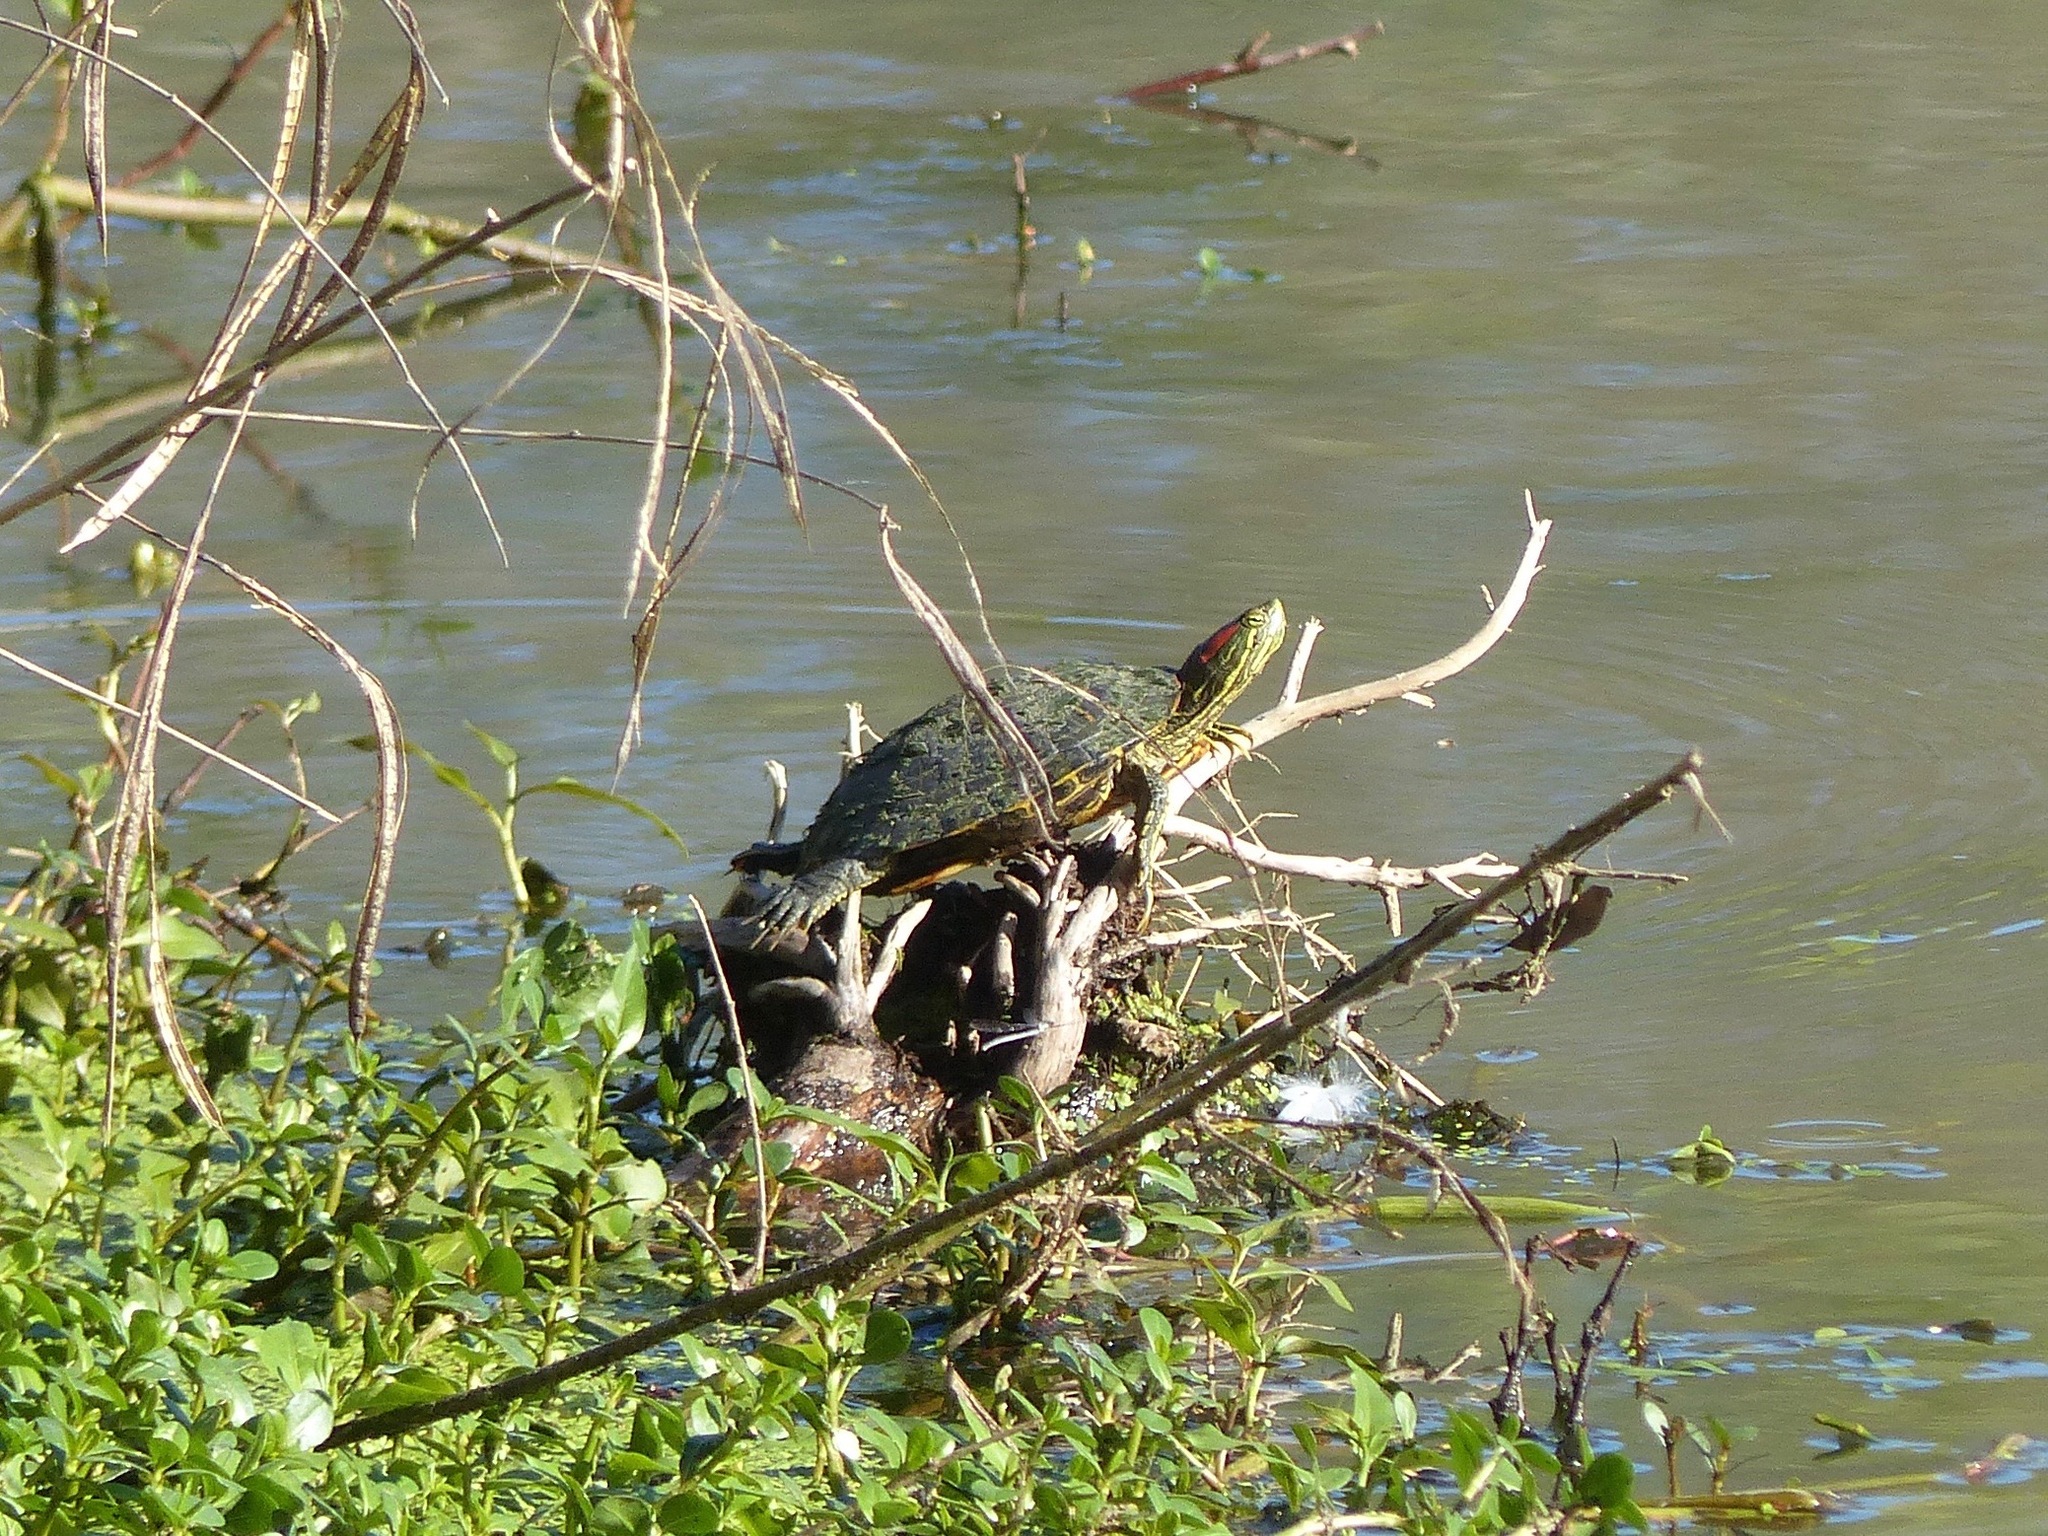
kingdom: Animalia
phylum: Chordata
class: Testudines
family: Emydidae
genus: Trachemys
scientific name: Trachemys scripta
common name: Slider
